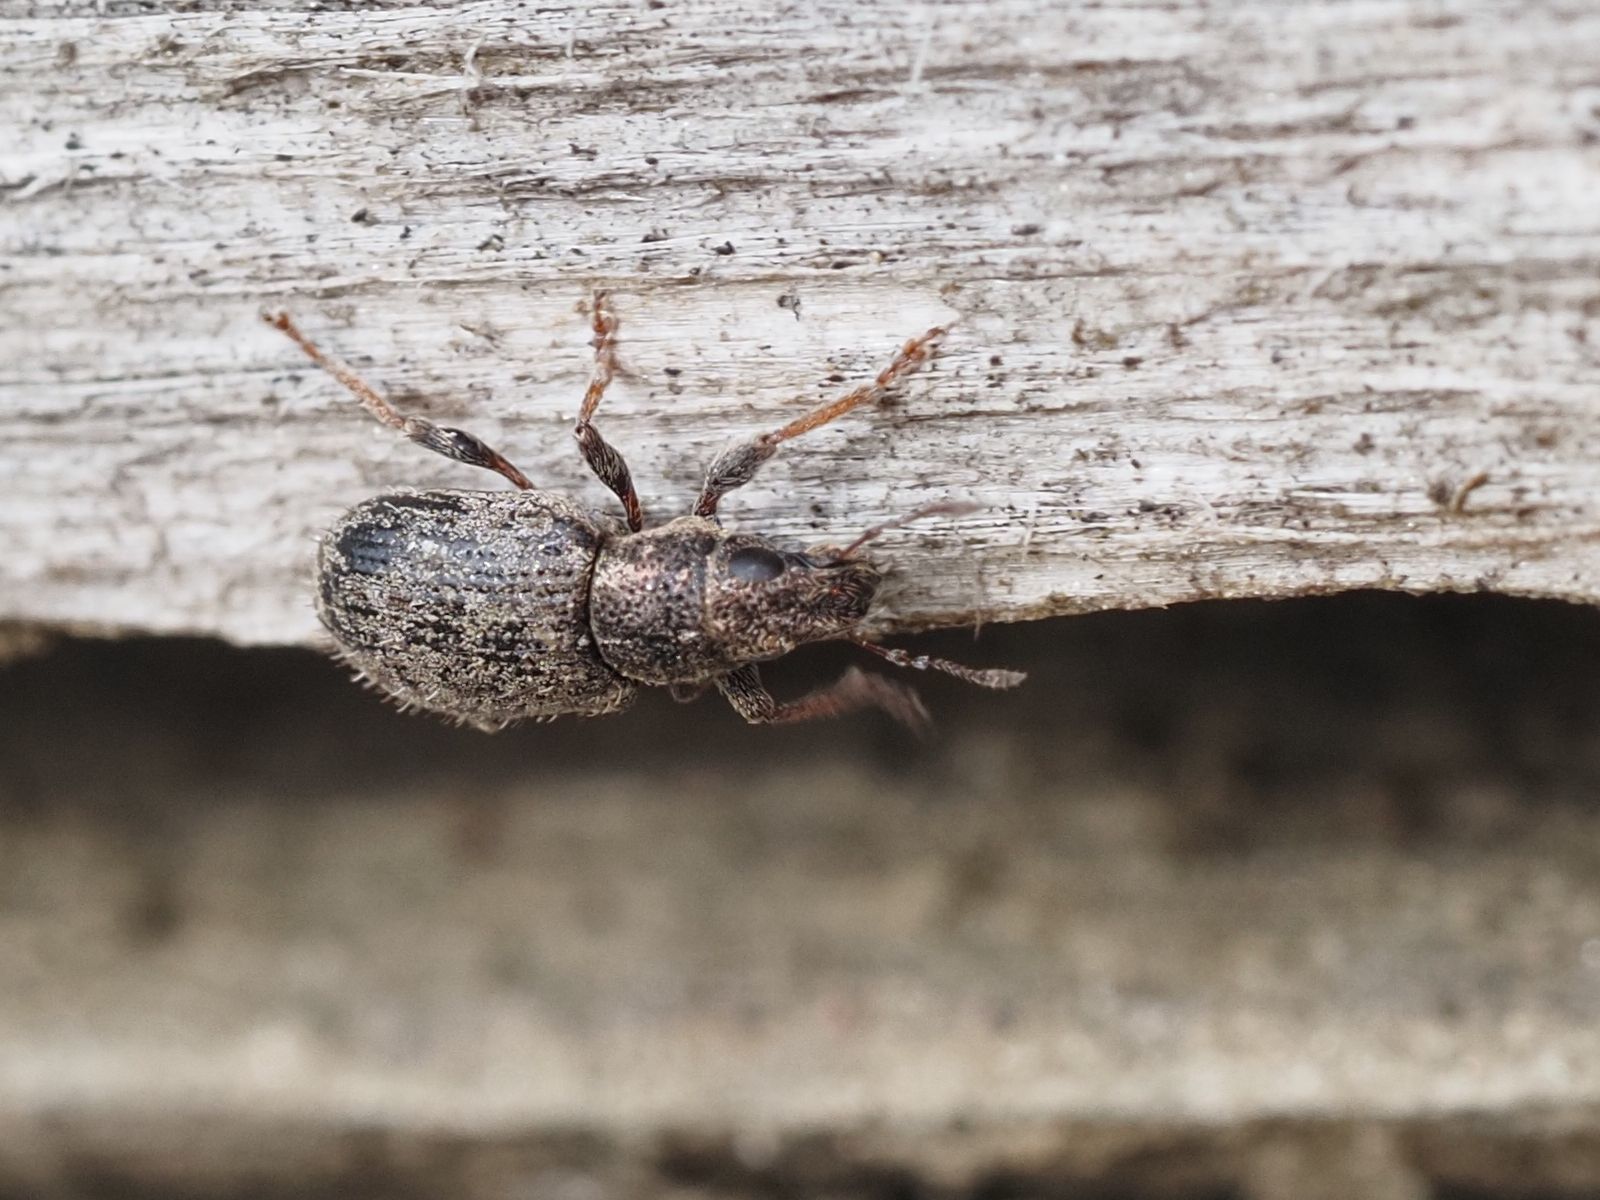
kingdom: Animalia
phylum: Arthropoda
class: Insecta
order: Coleoptera
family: Curculionidae
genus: Sitona
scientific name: Sitona hispidulus
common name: Clover weevil
